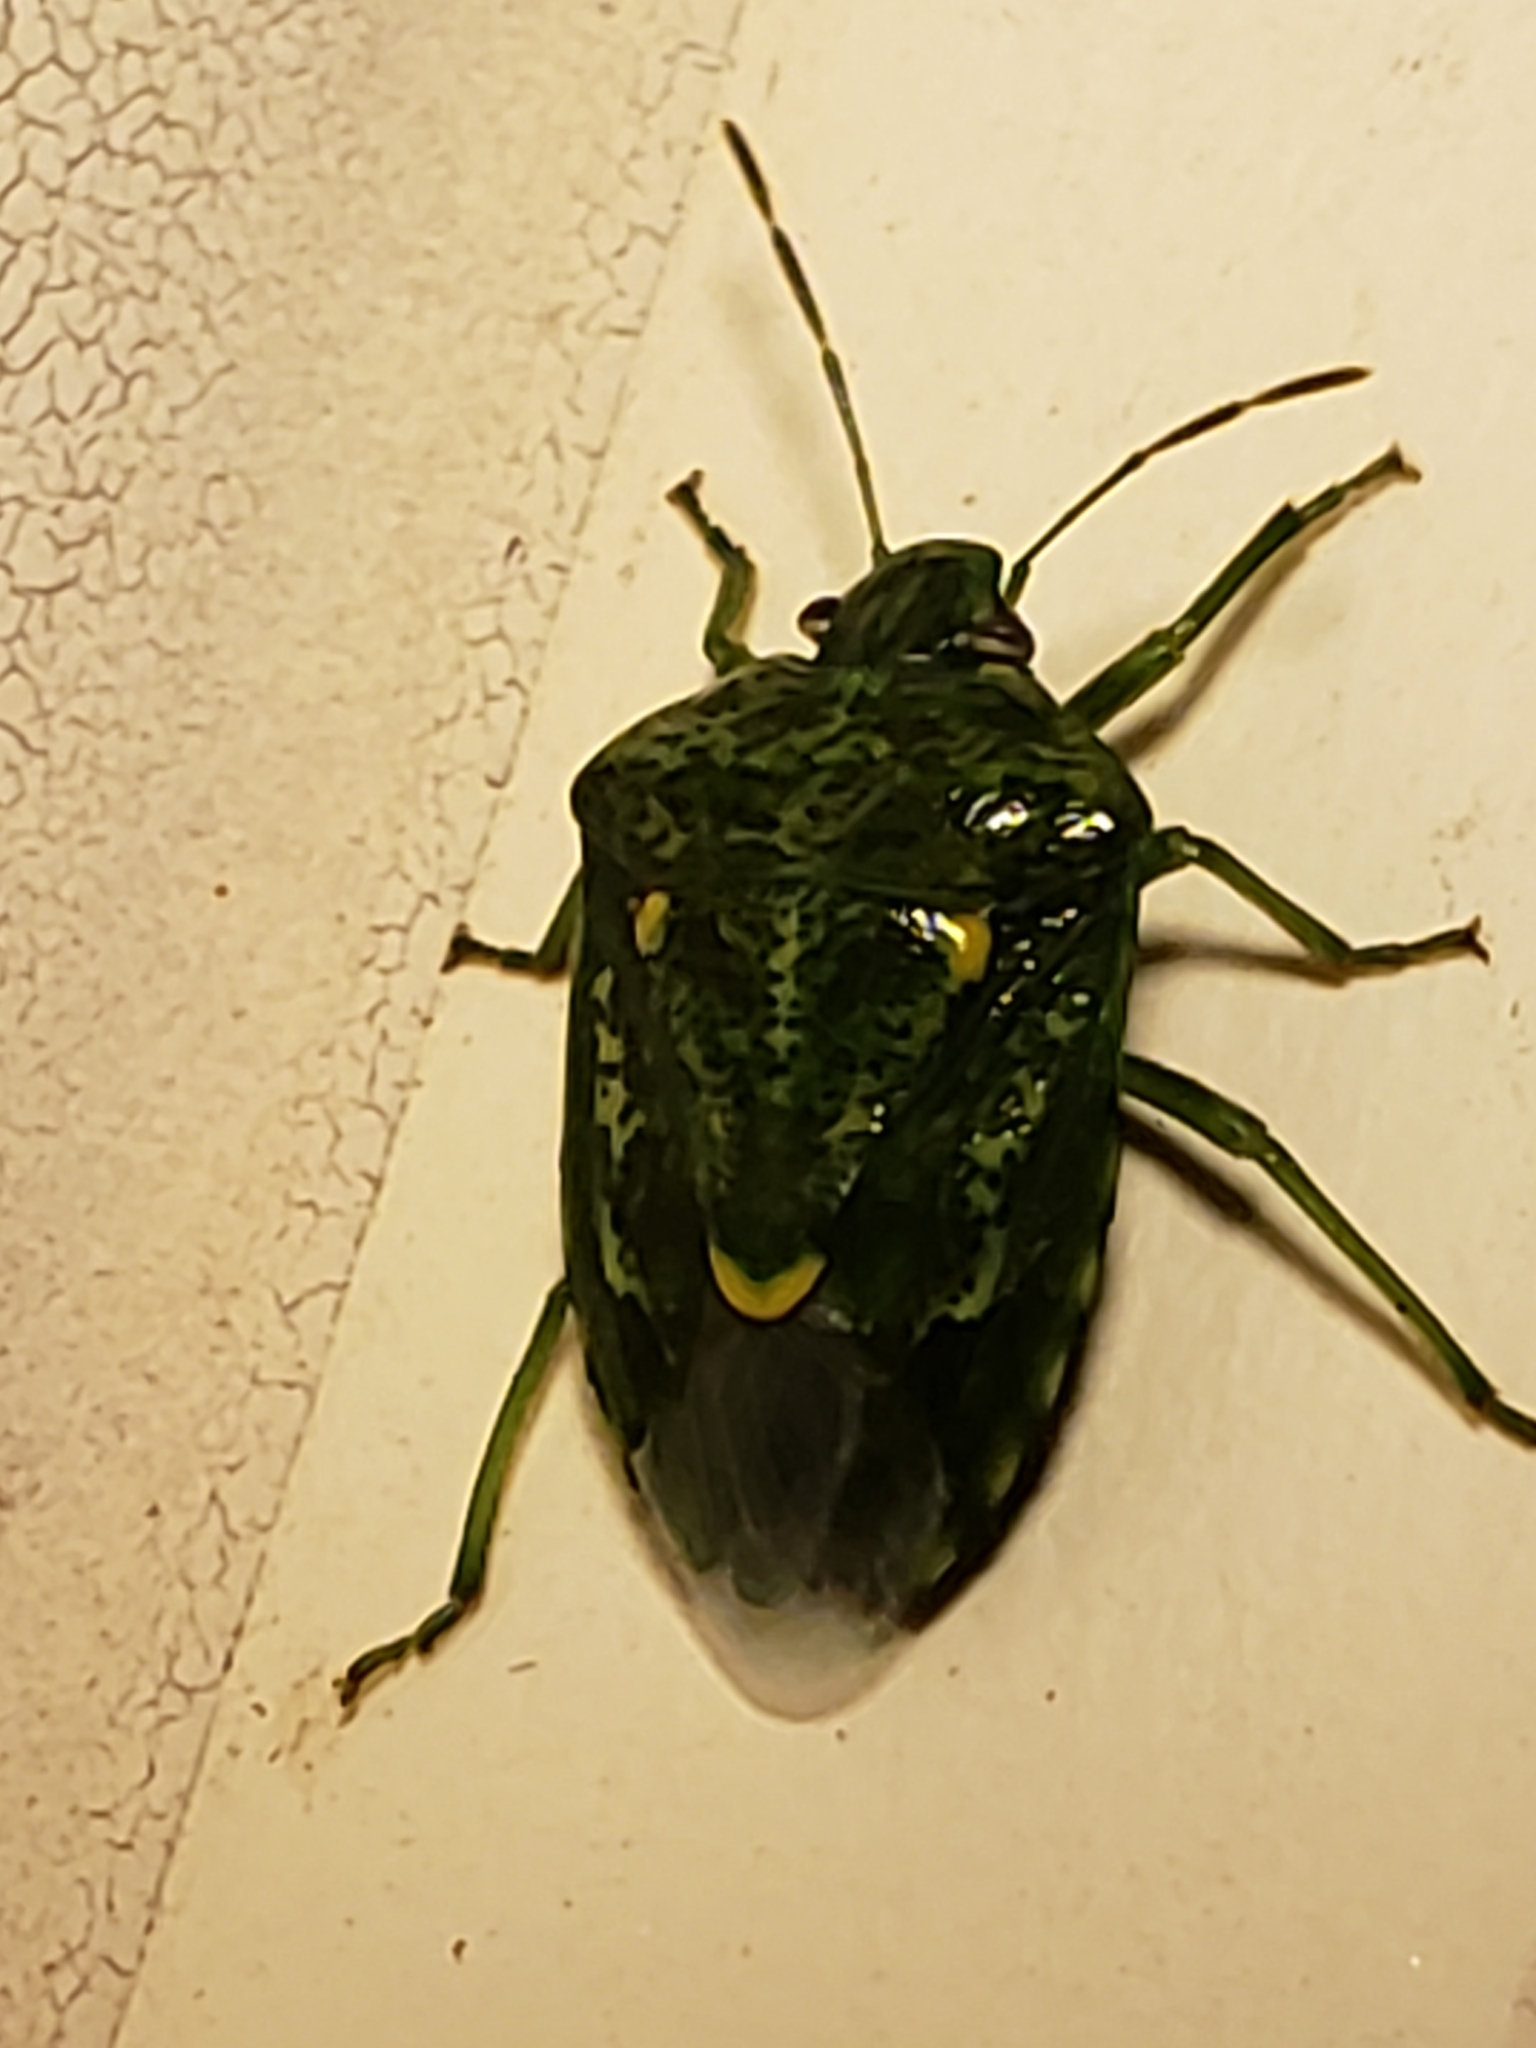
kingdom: Animalia
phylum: Arthropoda
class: Insecta
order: Hemiptera
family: Pentatomidae
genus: Banasa
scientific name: Banasa euchlora
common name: Cedar berry bug
